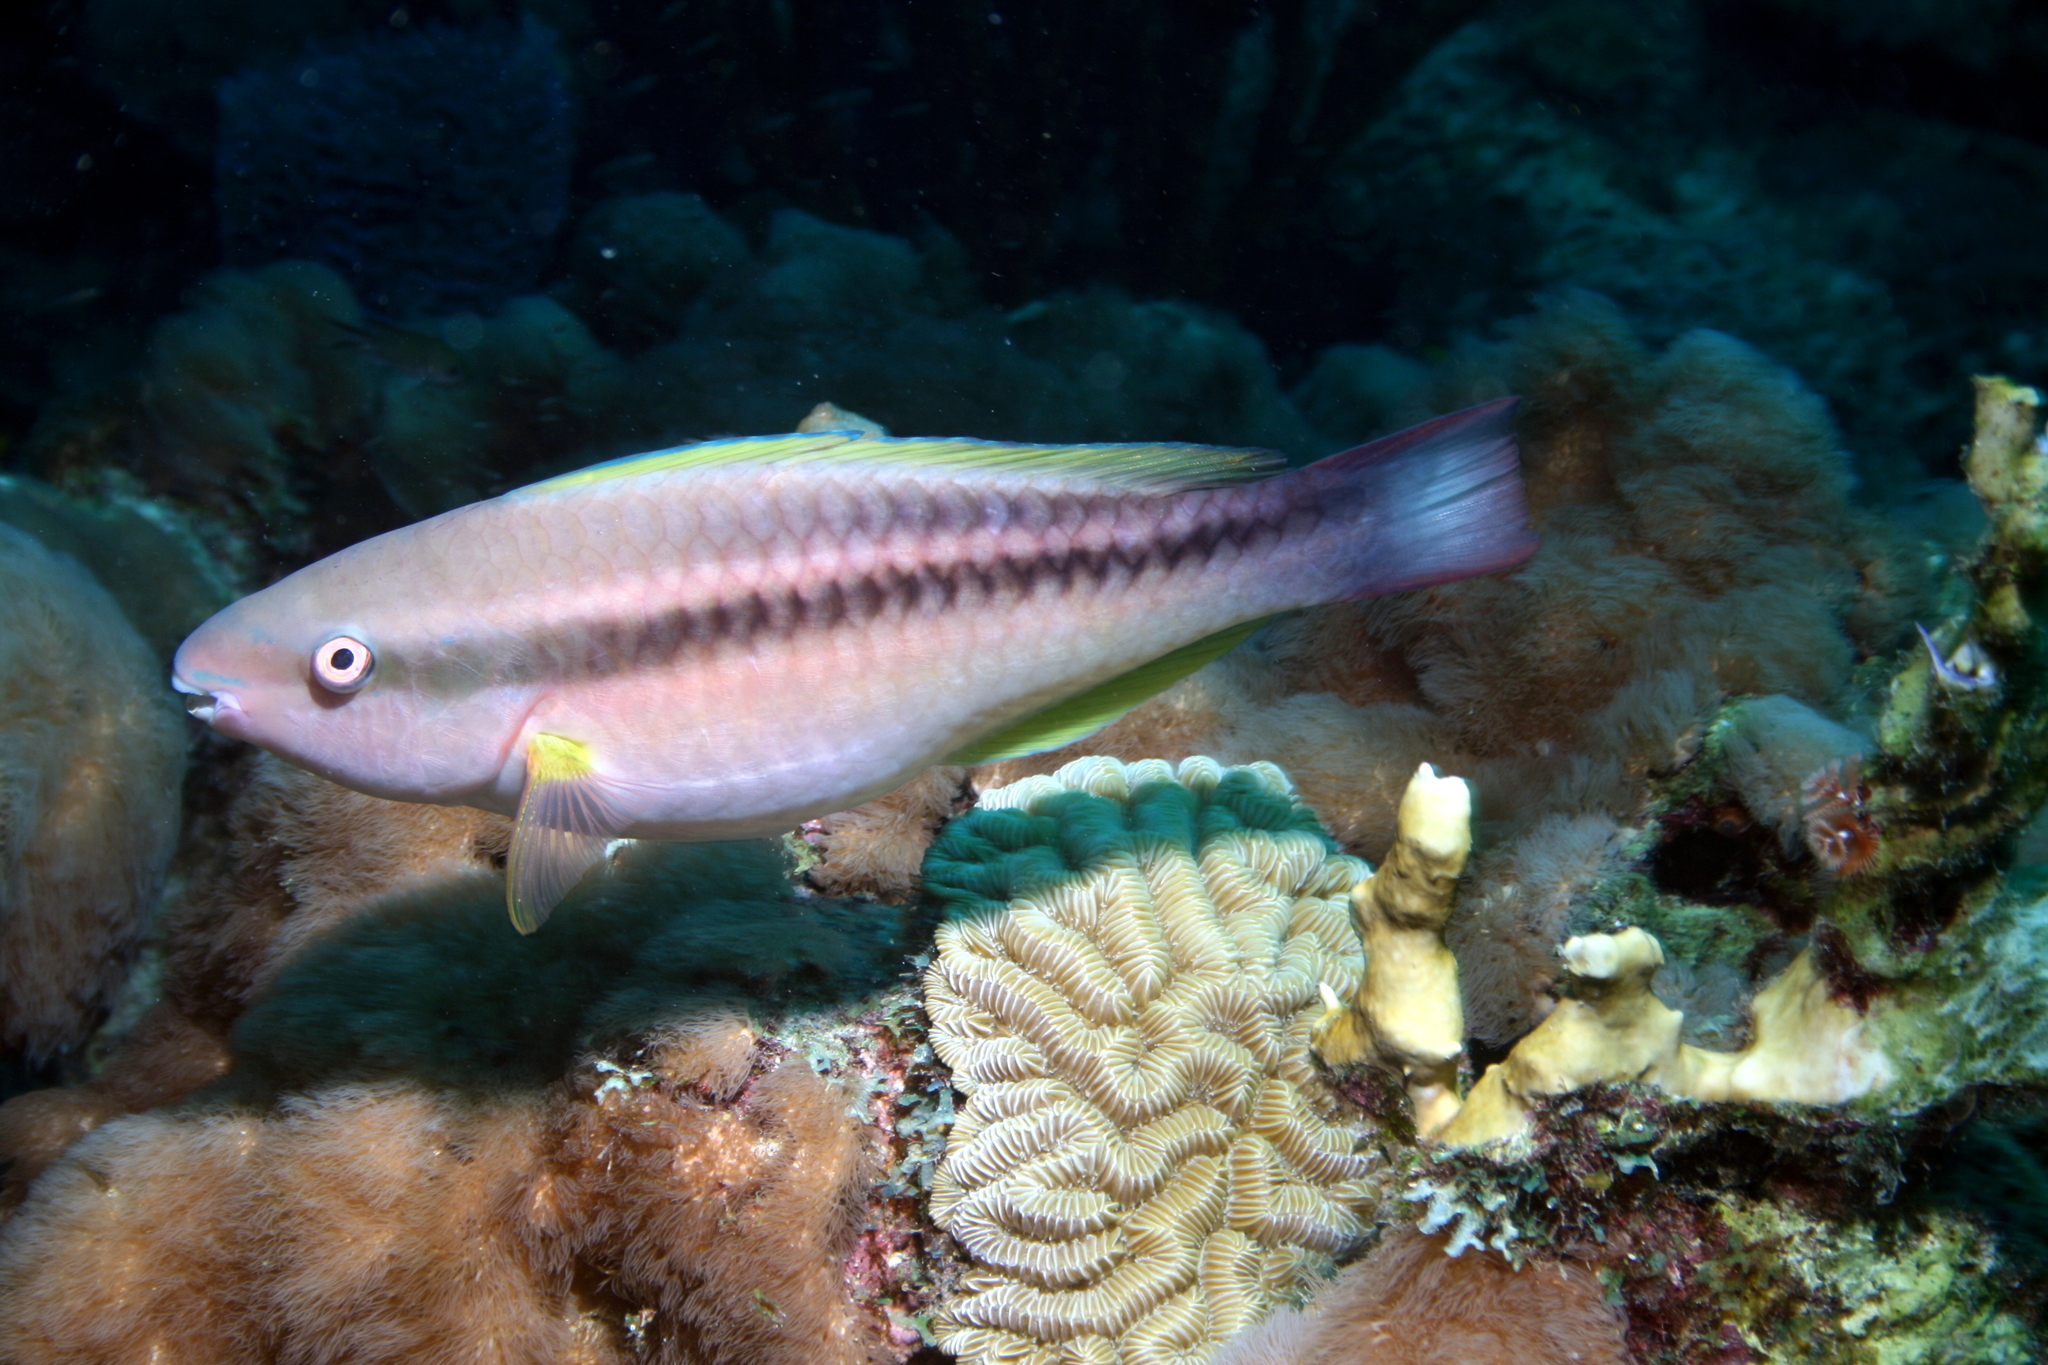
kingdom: Animalia
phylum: Chordata
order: Perciformes
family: Scaridae
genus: Scarus
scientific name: Scarus taeniopterus
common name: Princess parrotfish
